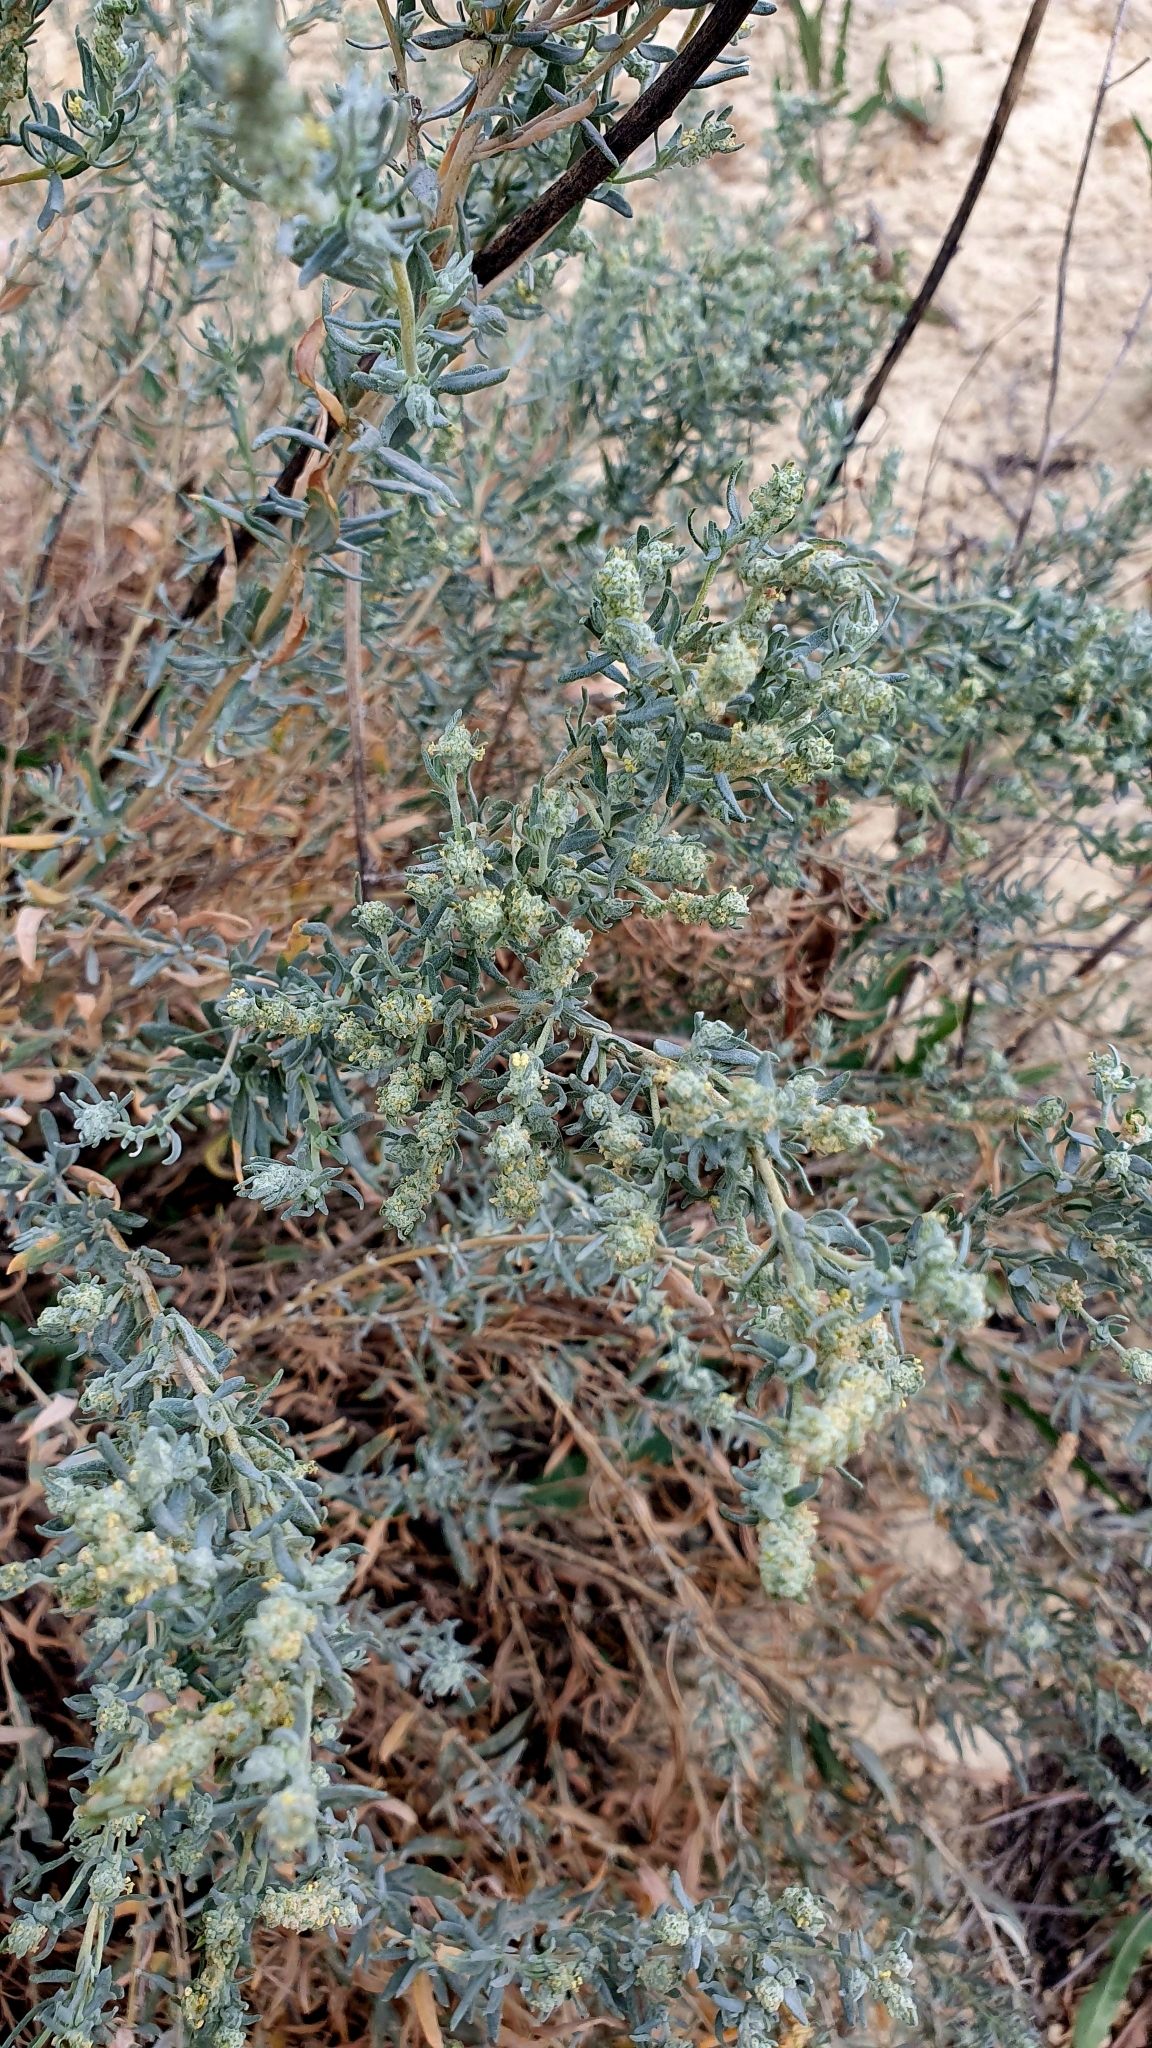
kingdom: Plantae
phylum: Tracheophyta
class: Magnoliopsida
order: Caryophyllales
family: Amaranthaceae
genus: Krascheninnikovia
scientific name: Krascheninnikovia ceratoides
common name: Pamirian winterfat
